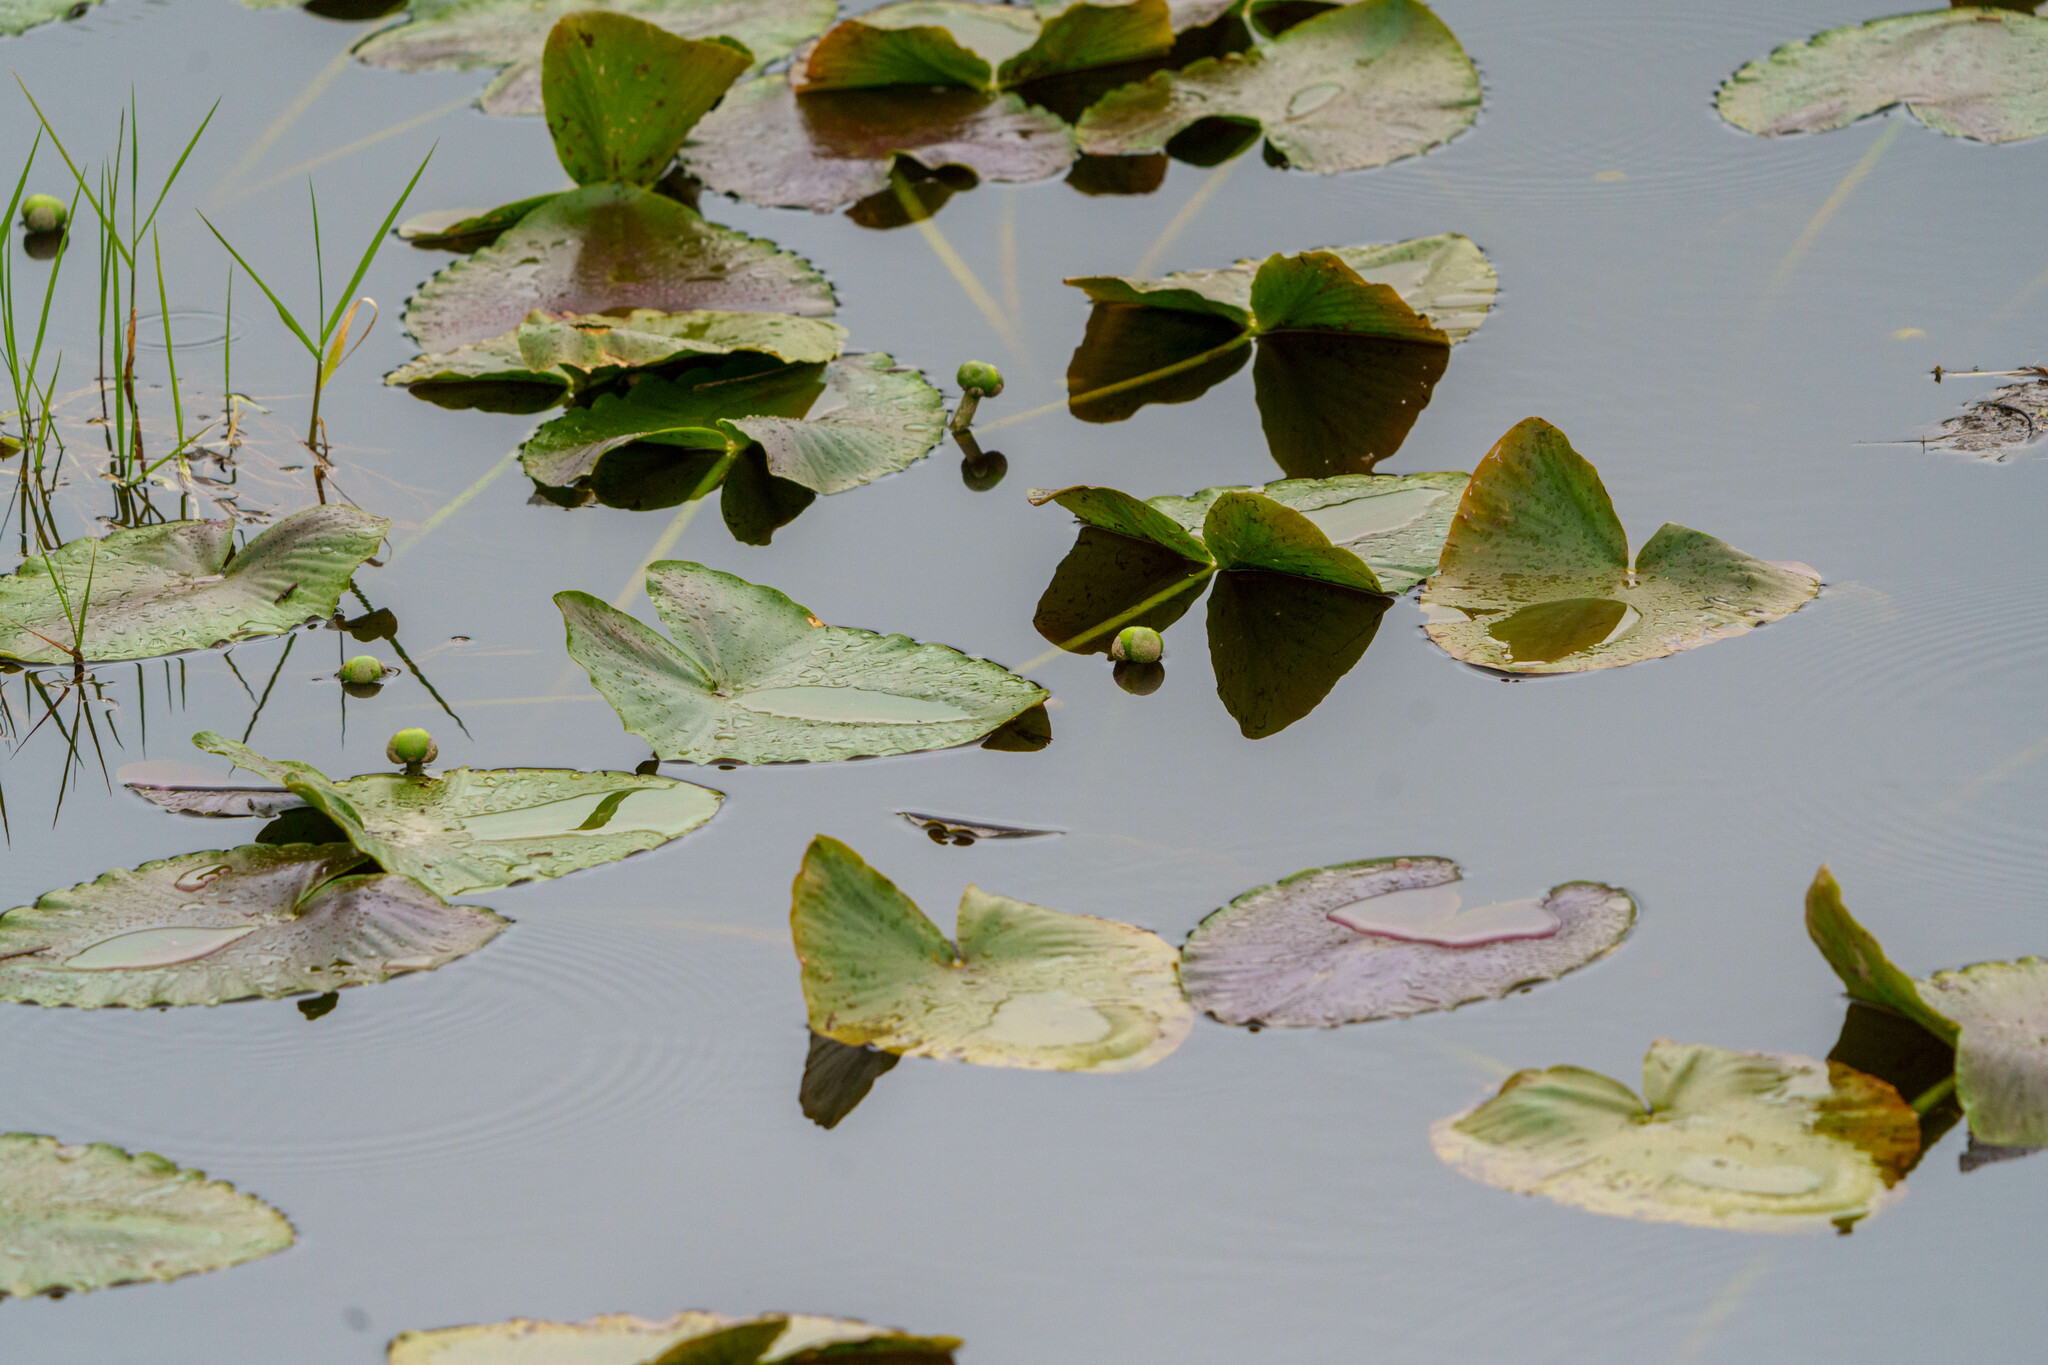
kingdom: Plantae
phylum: Tracheophyta
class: Magnoliopsida
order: Nymphaeales
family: Nymphaeaceae
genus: Nuphar
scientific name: Nuphar polysepala
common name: Rocky mountain cow-lily
